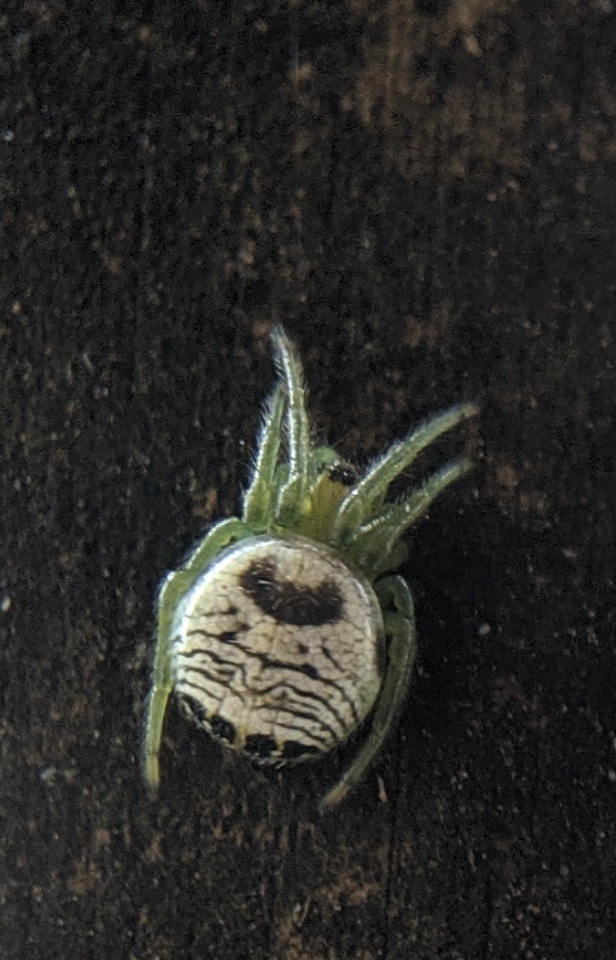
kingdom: Animalia
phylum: Arthropoda
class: Arachnida
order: Araneae
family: Araneidae
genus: Bijoaraneus
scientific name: Bijoaraneus mitificus
